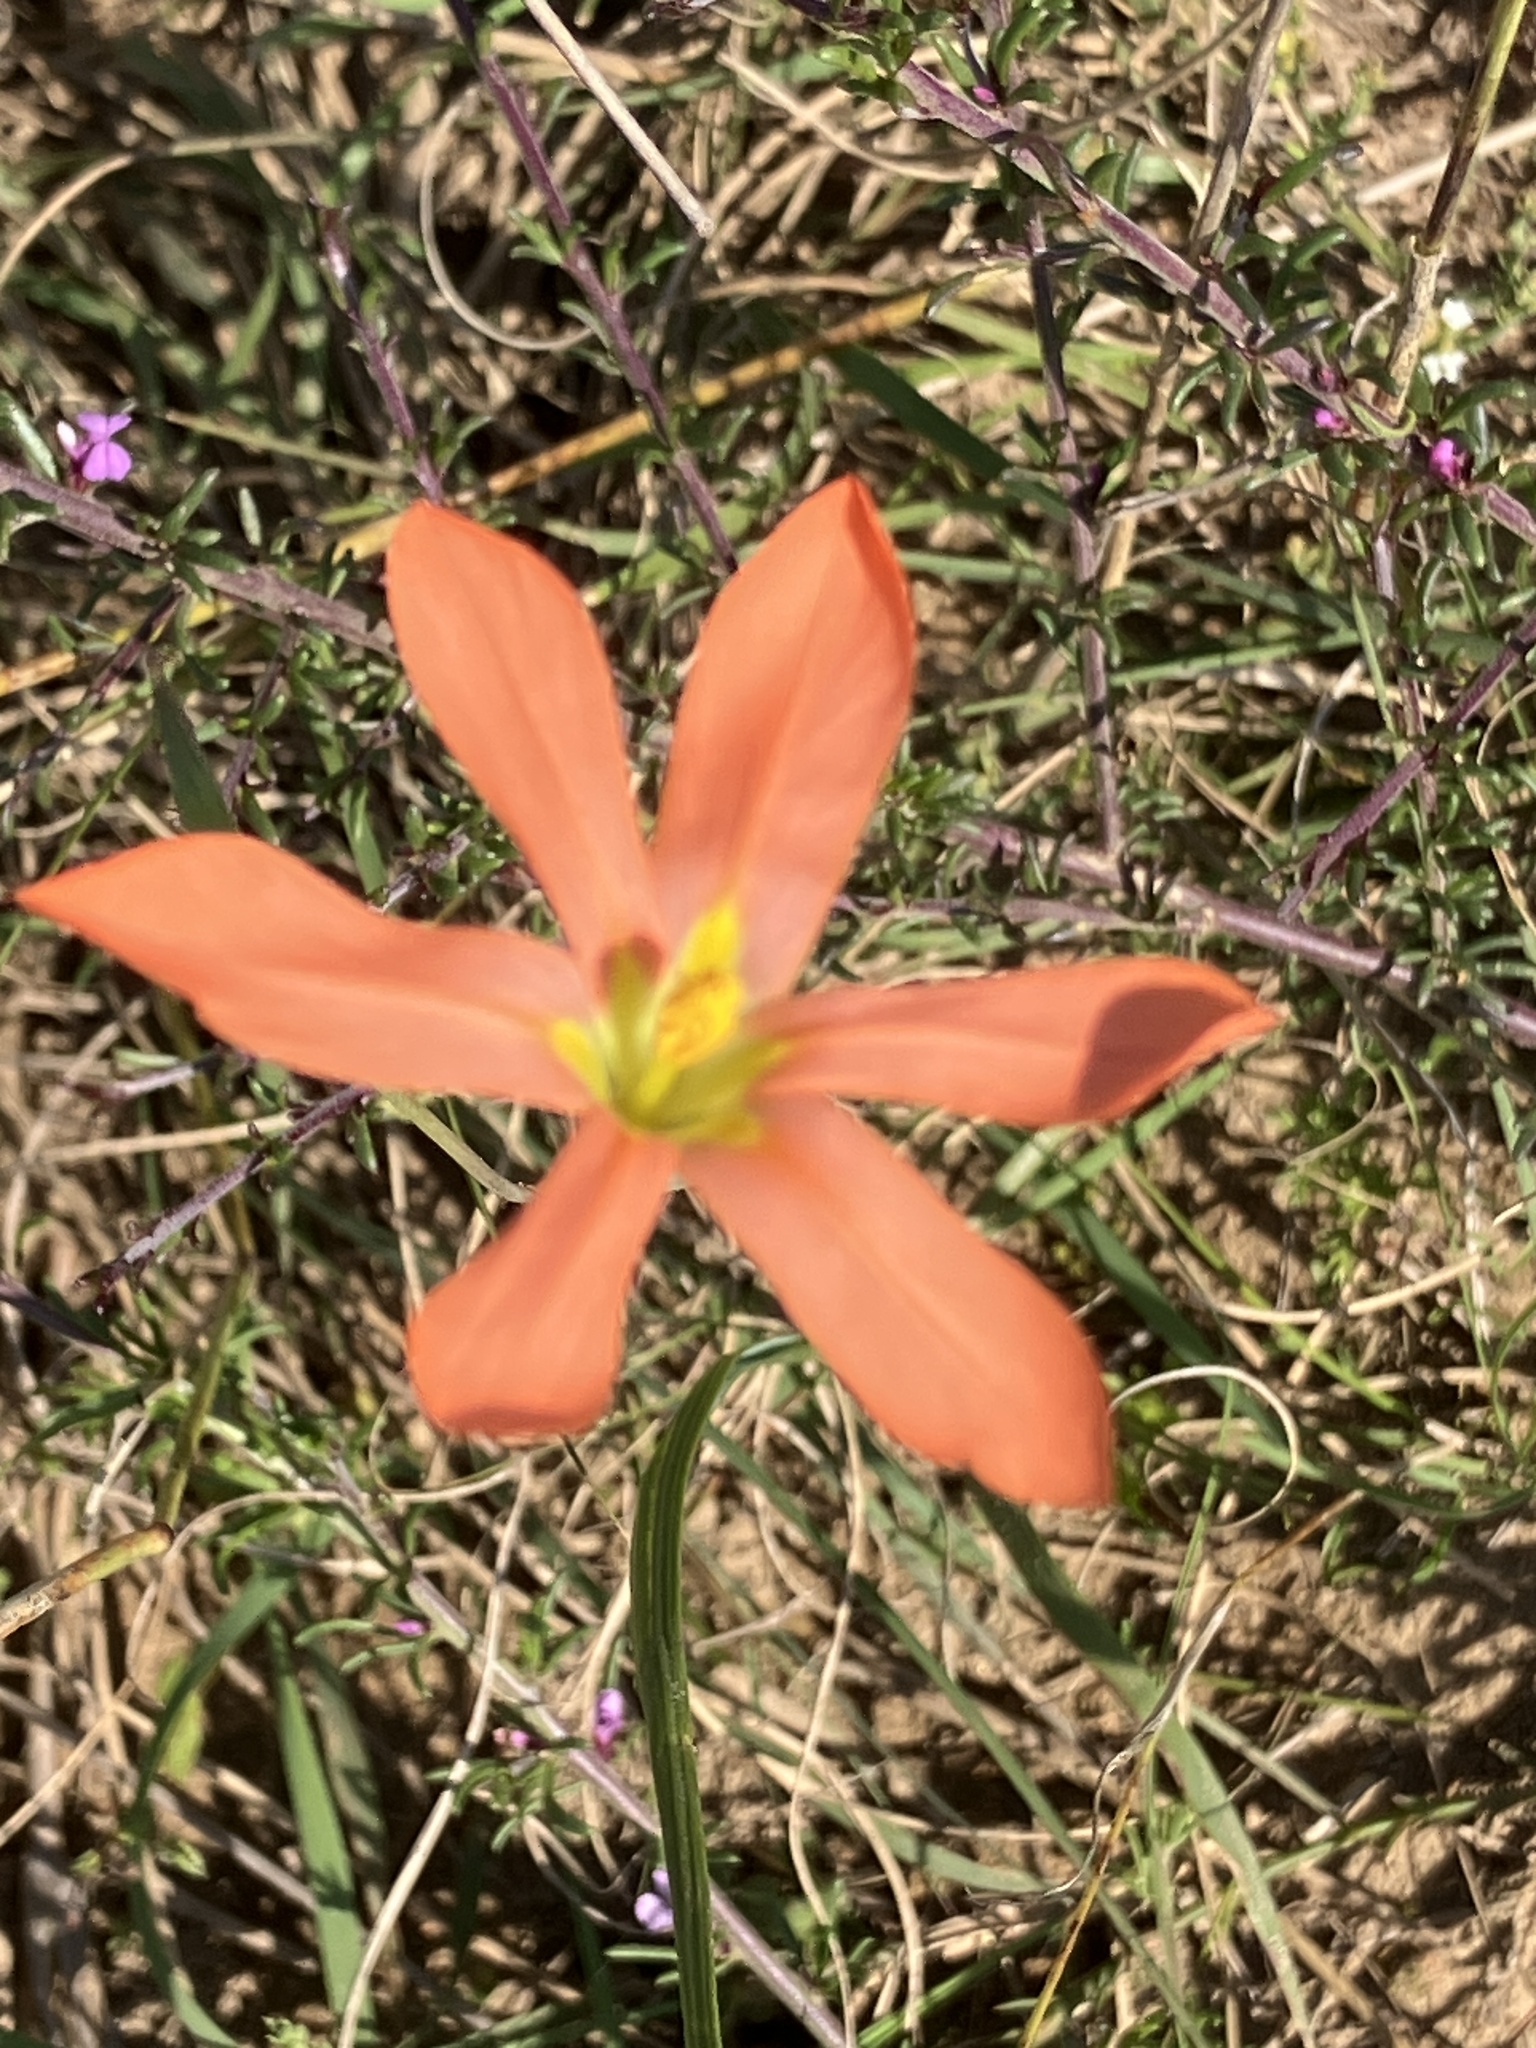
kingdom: Plantae
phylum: Tracheophyta
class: Liliopsida
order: Asparagales
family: Iridaceae
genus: Moraea
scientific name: Moraea bulbillifera
